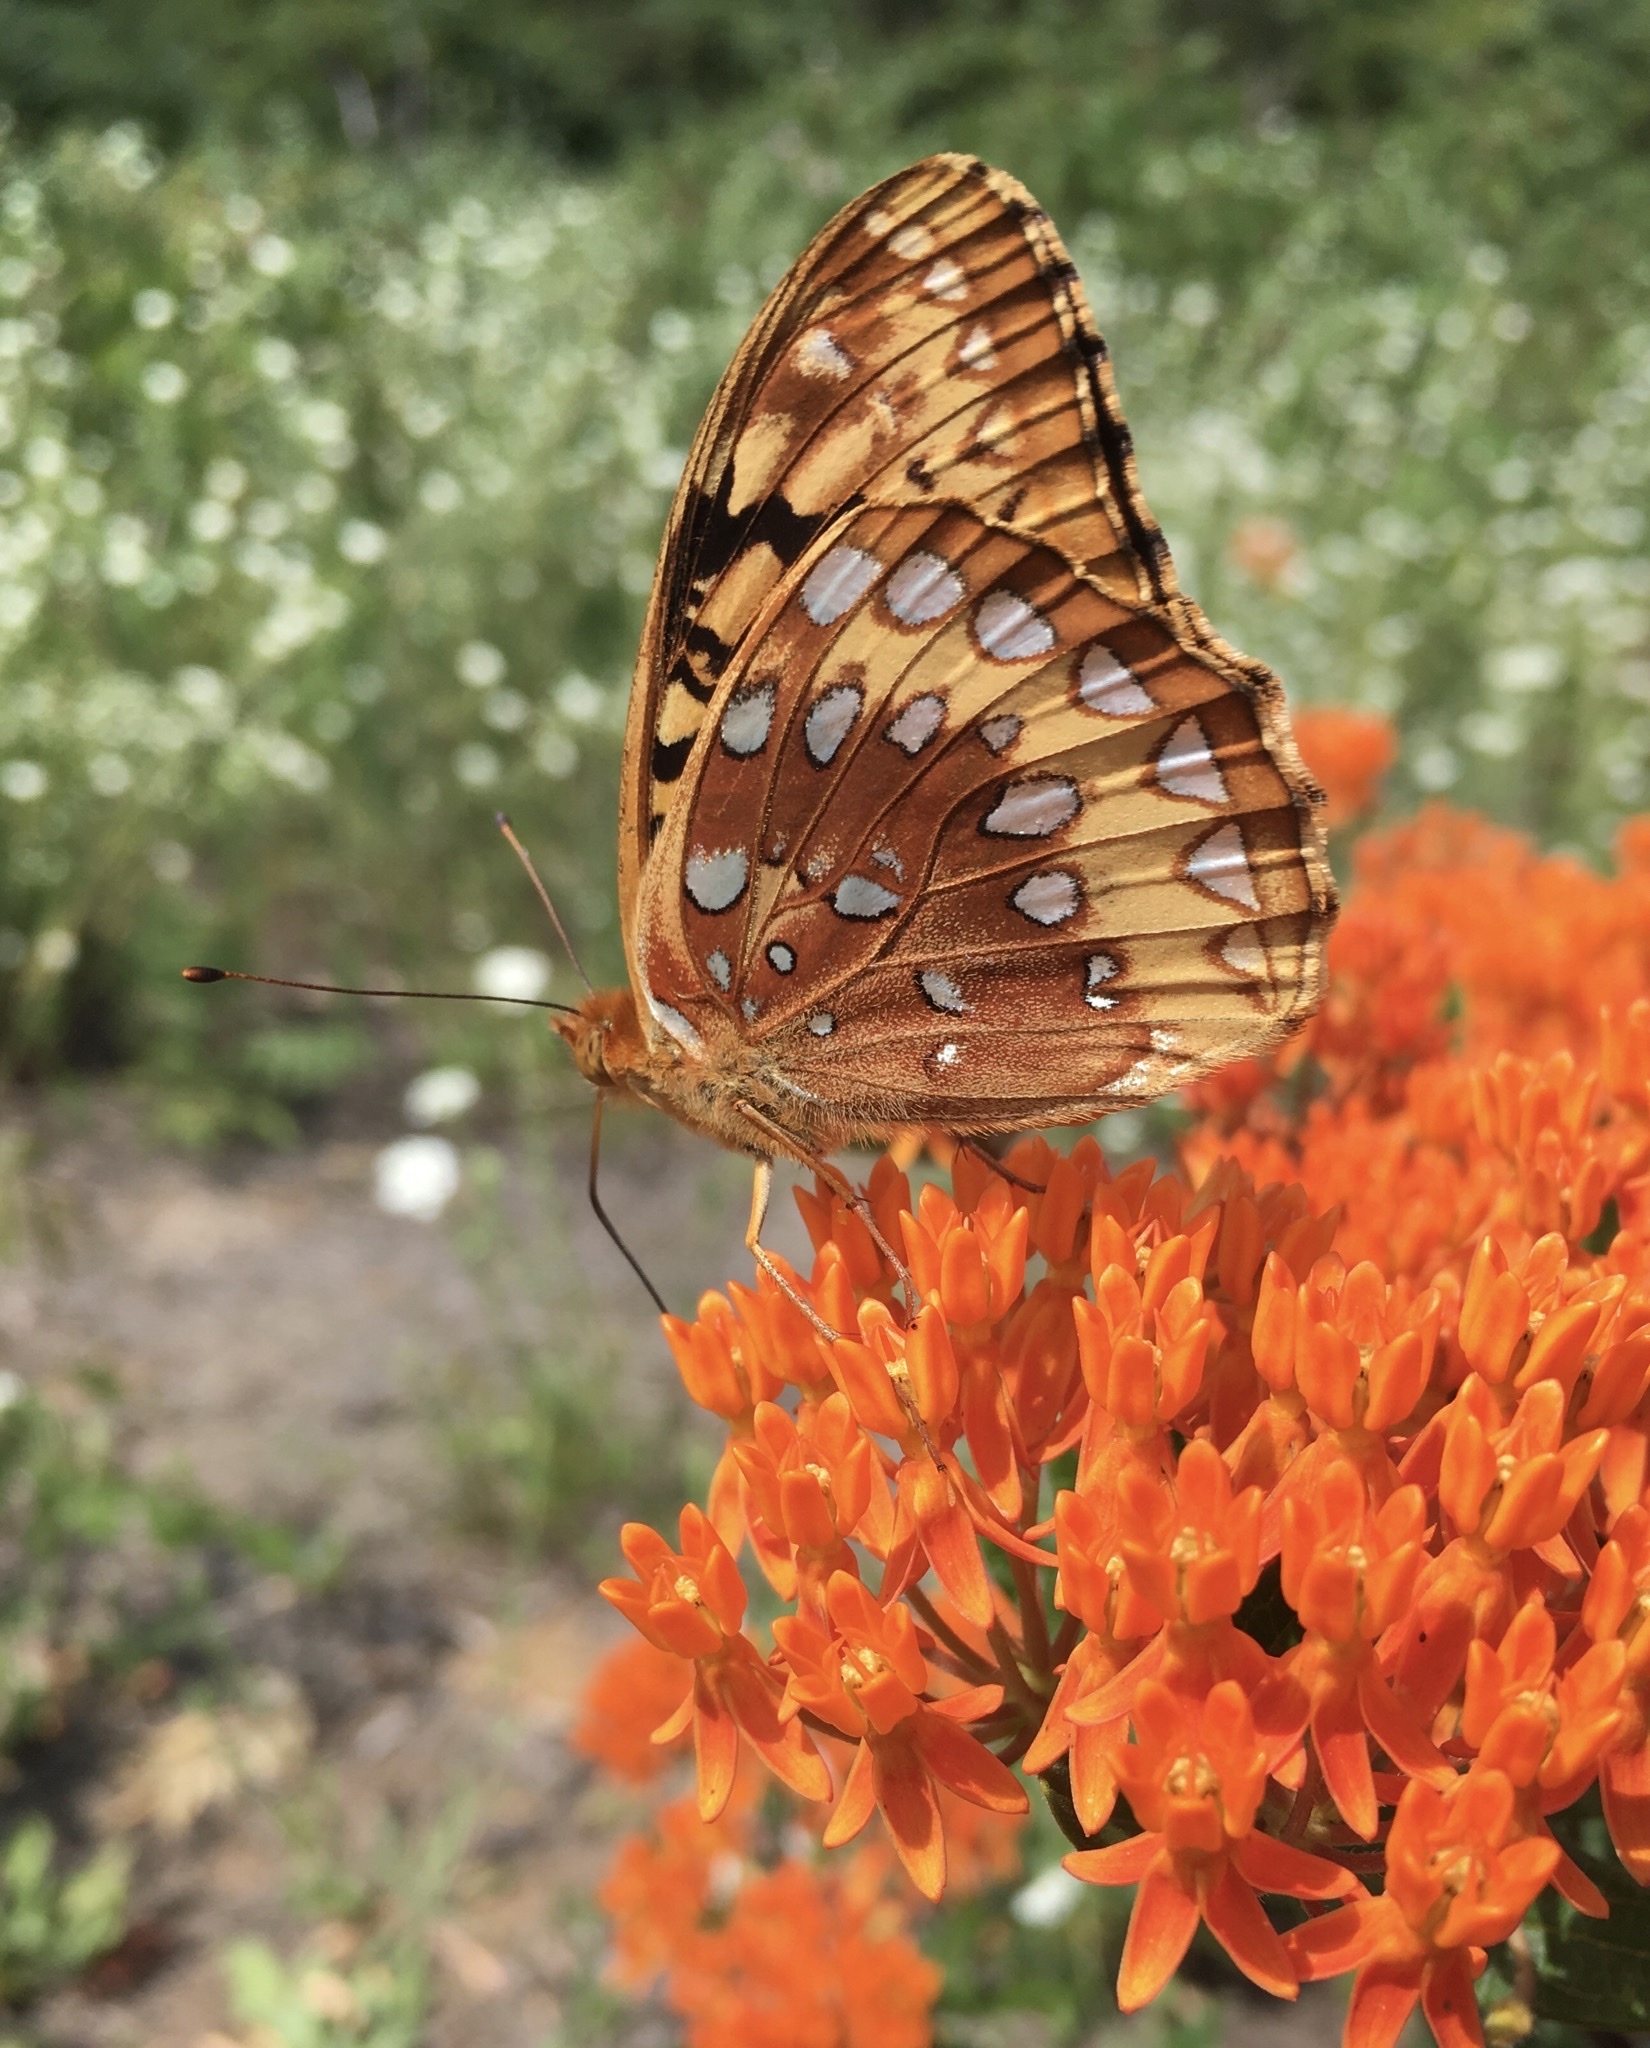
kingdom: Animalia
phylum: Arthropoda
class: Insecta
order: Lepidoptera
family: Nymphalidae
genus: Speyeria
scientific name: Speyeria cybele
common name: Great spangled fritillary
